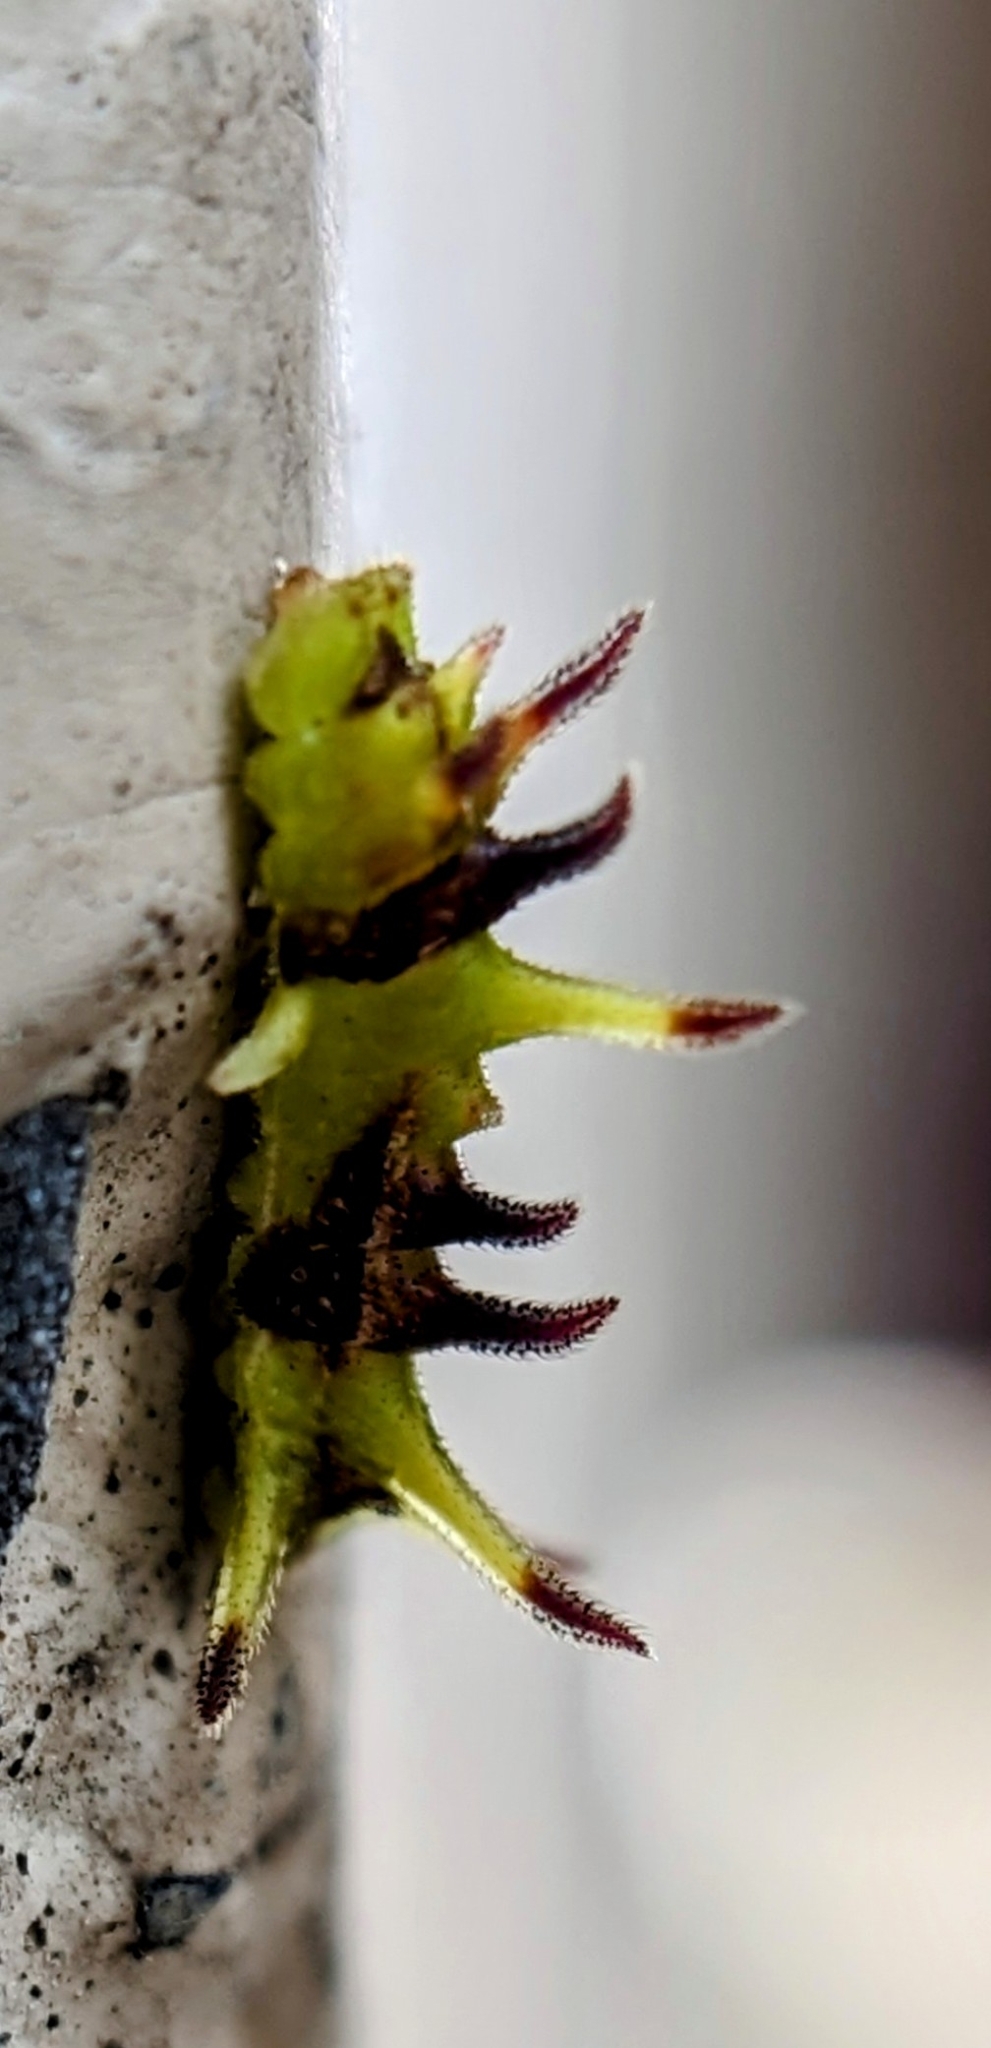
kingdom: Animalia
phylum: Arthropoda
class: Insecta
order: Lepidoptera
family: Lycaenidae
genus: Rathinda
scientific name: Rathinda amor
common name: Monkey puzzle
